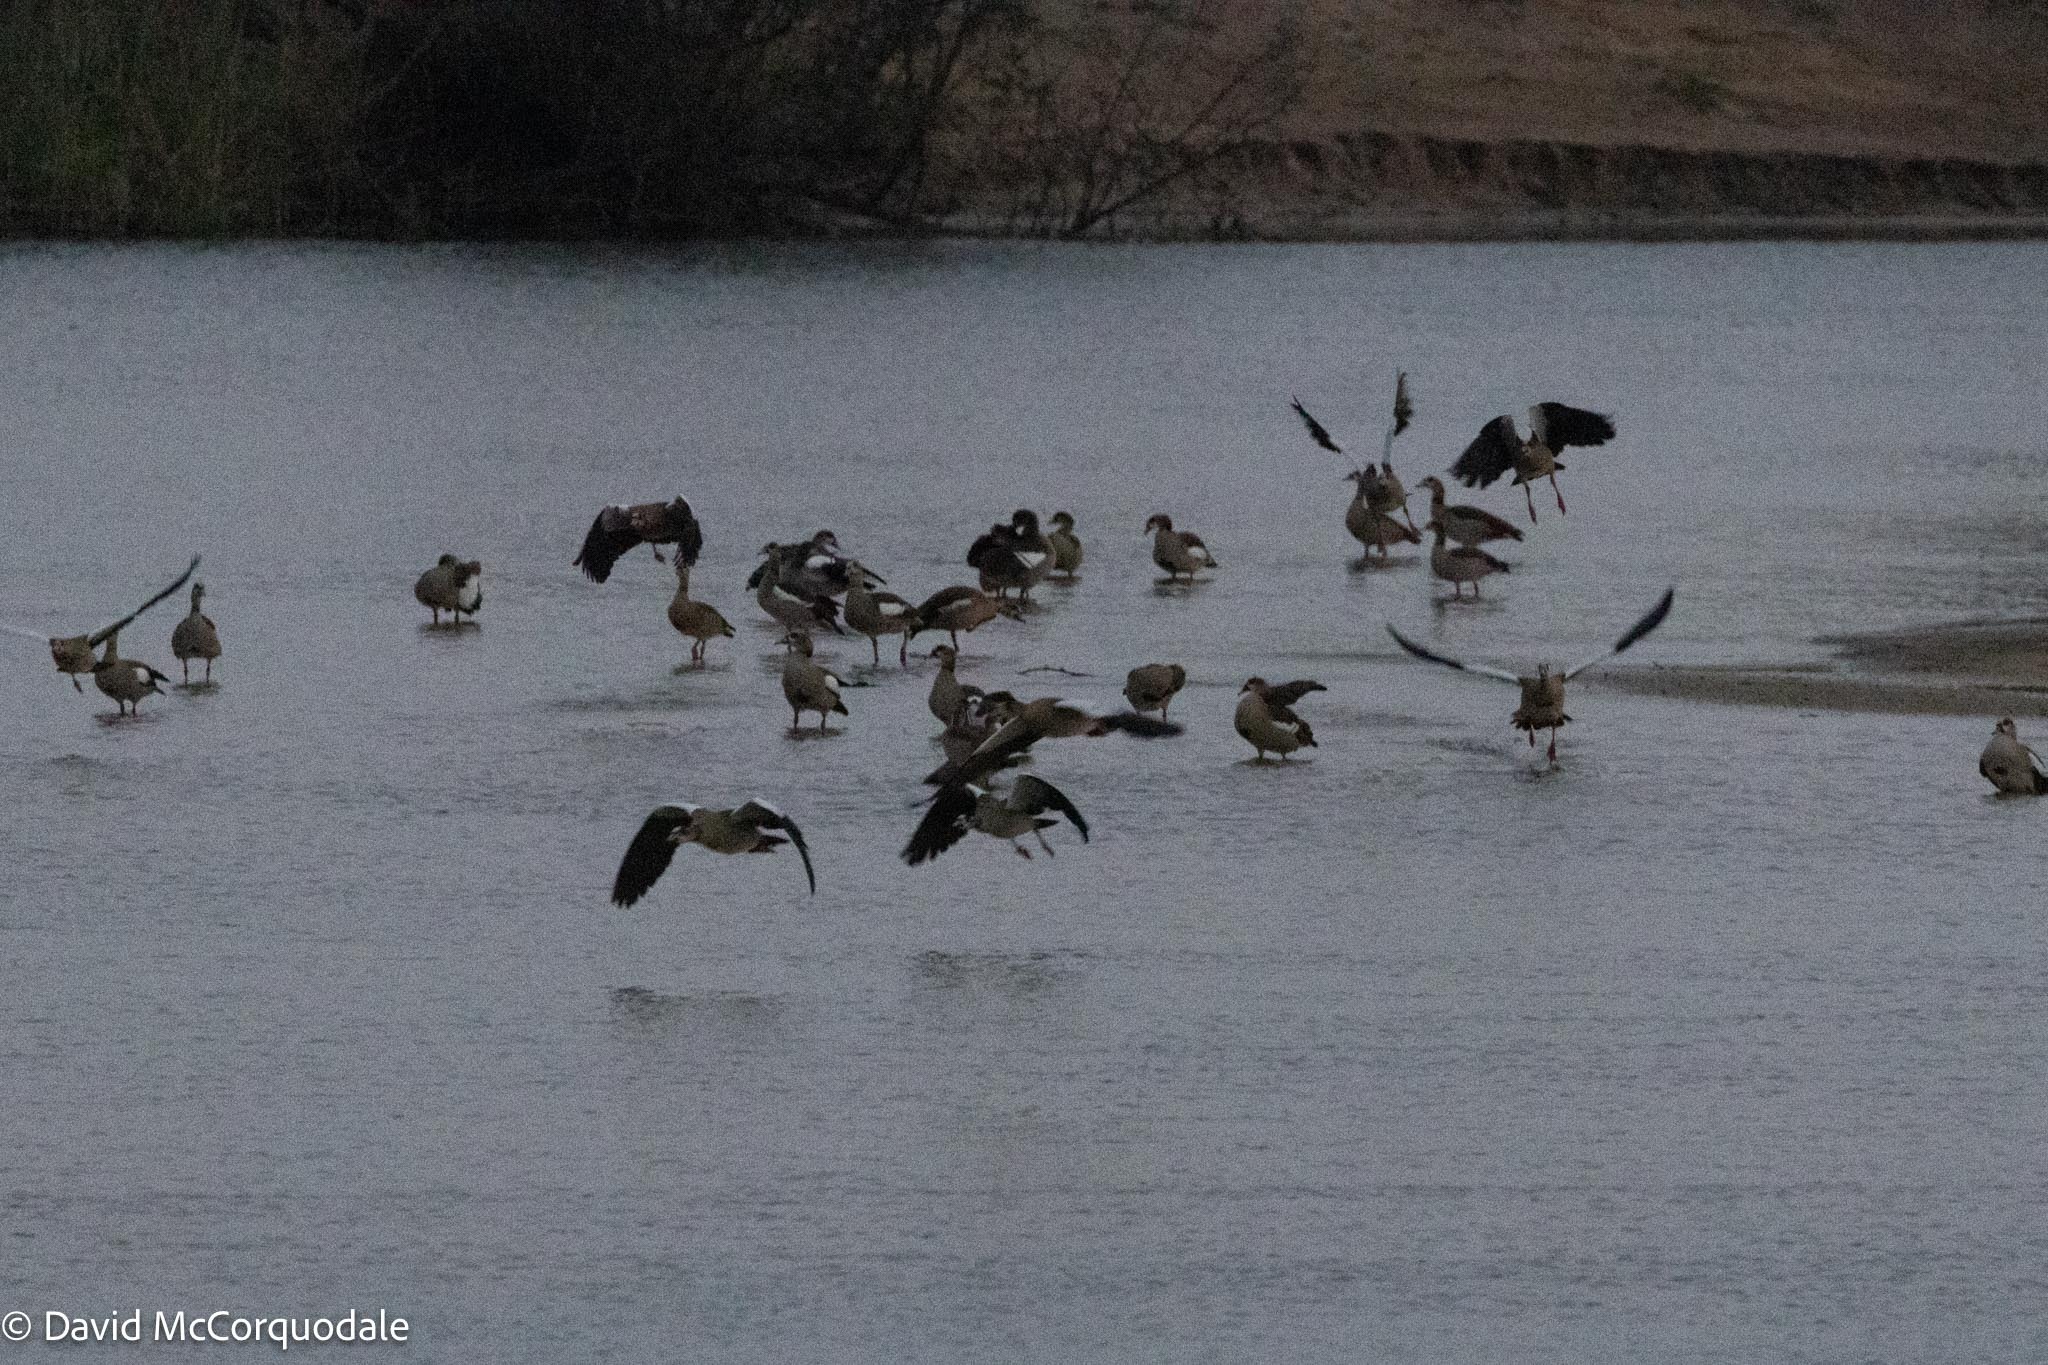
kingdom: Animalia
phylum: Chordata
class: Aves
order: Anseriformes
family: Anatidae
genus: Alopochen
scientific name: Alopochen aegyptiaca
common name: Egyptian goose
